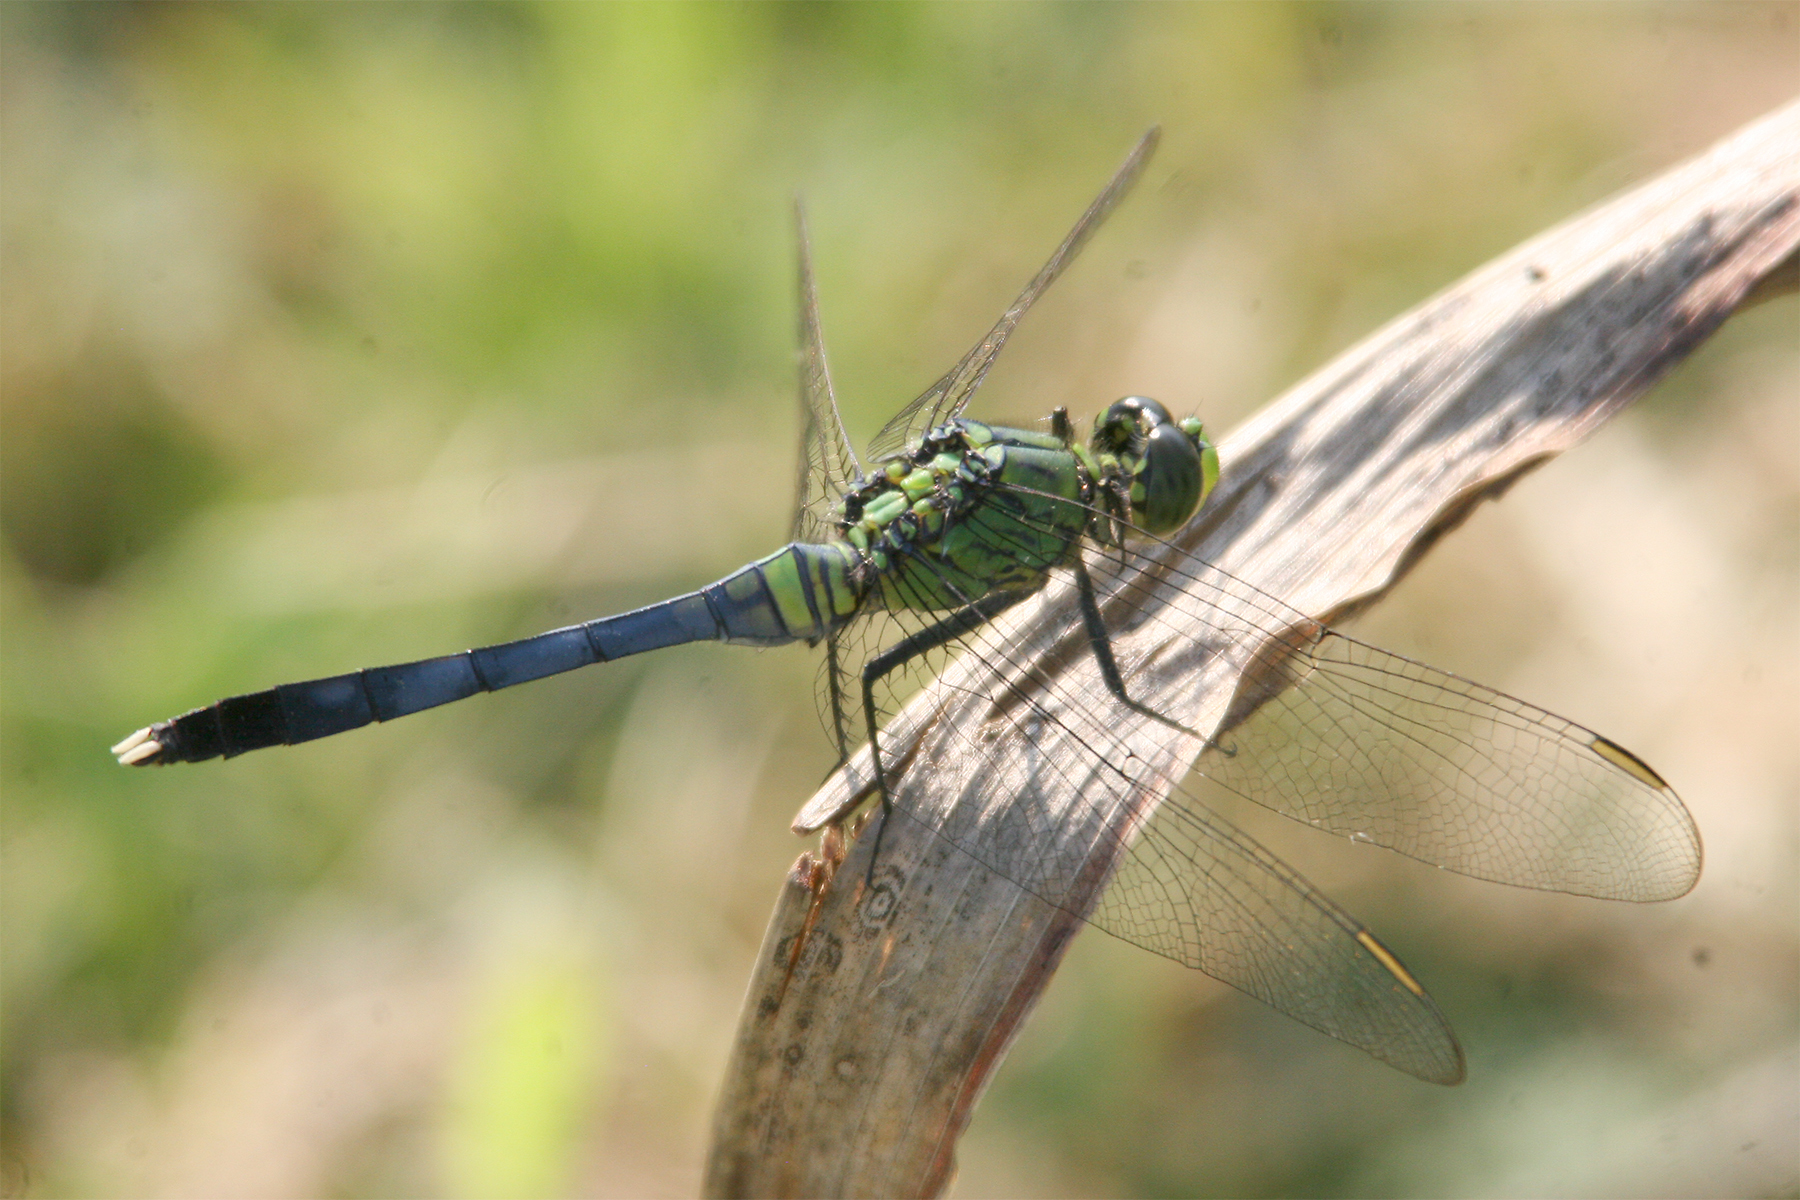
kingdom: Animalia
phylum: Arthropoda
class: Insecta
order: Odonata
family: Libellulidae
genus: Erythemis
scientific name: Erythemis simplicicollis
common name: Eastern pondhawk
